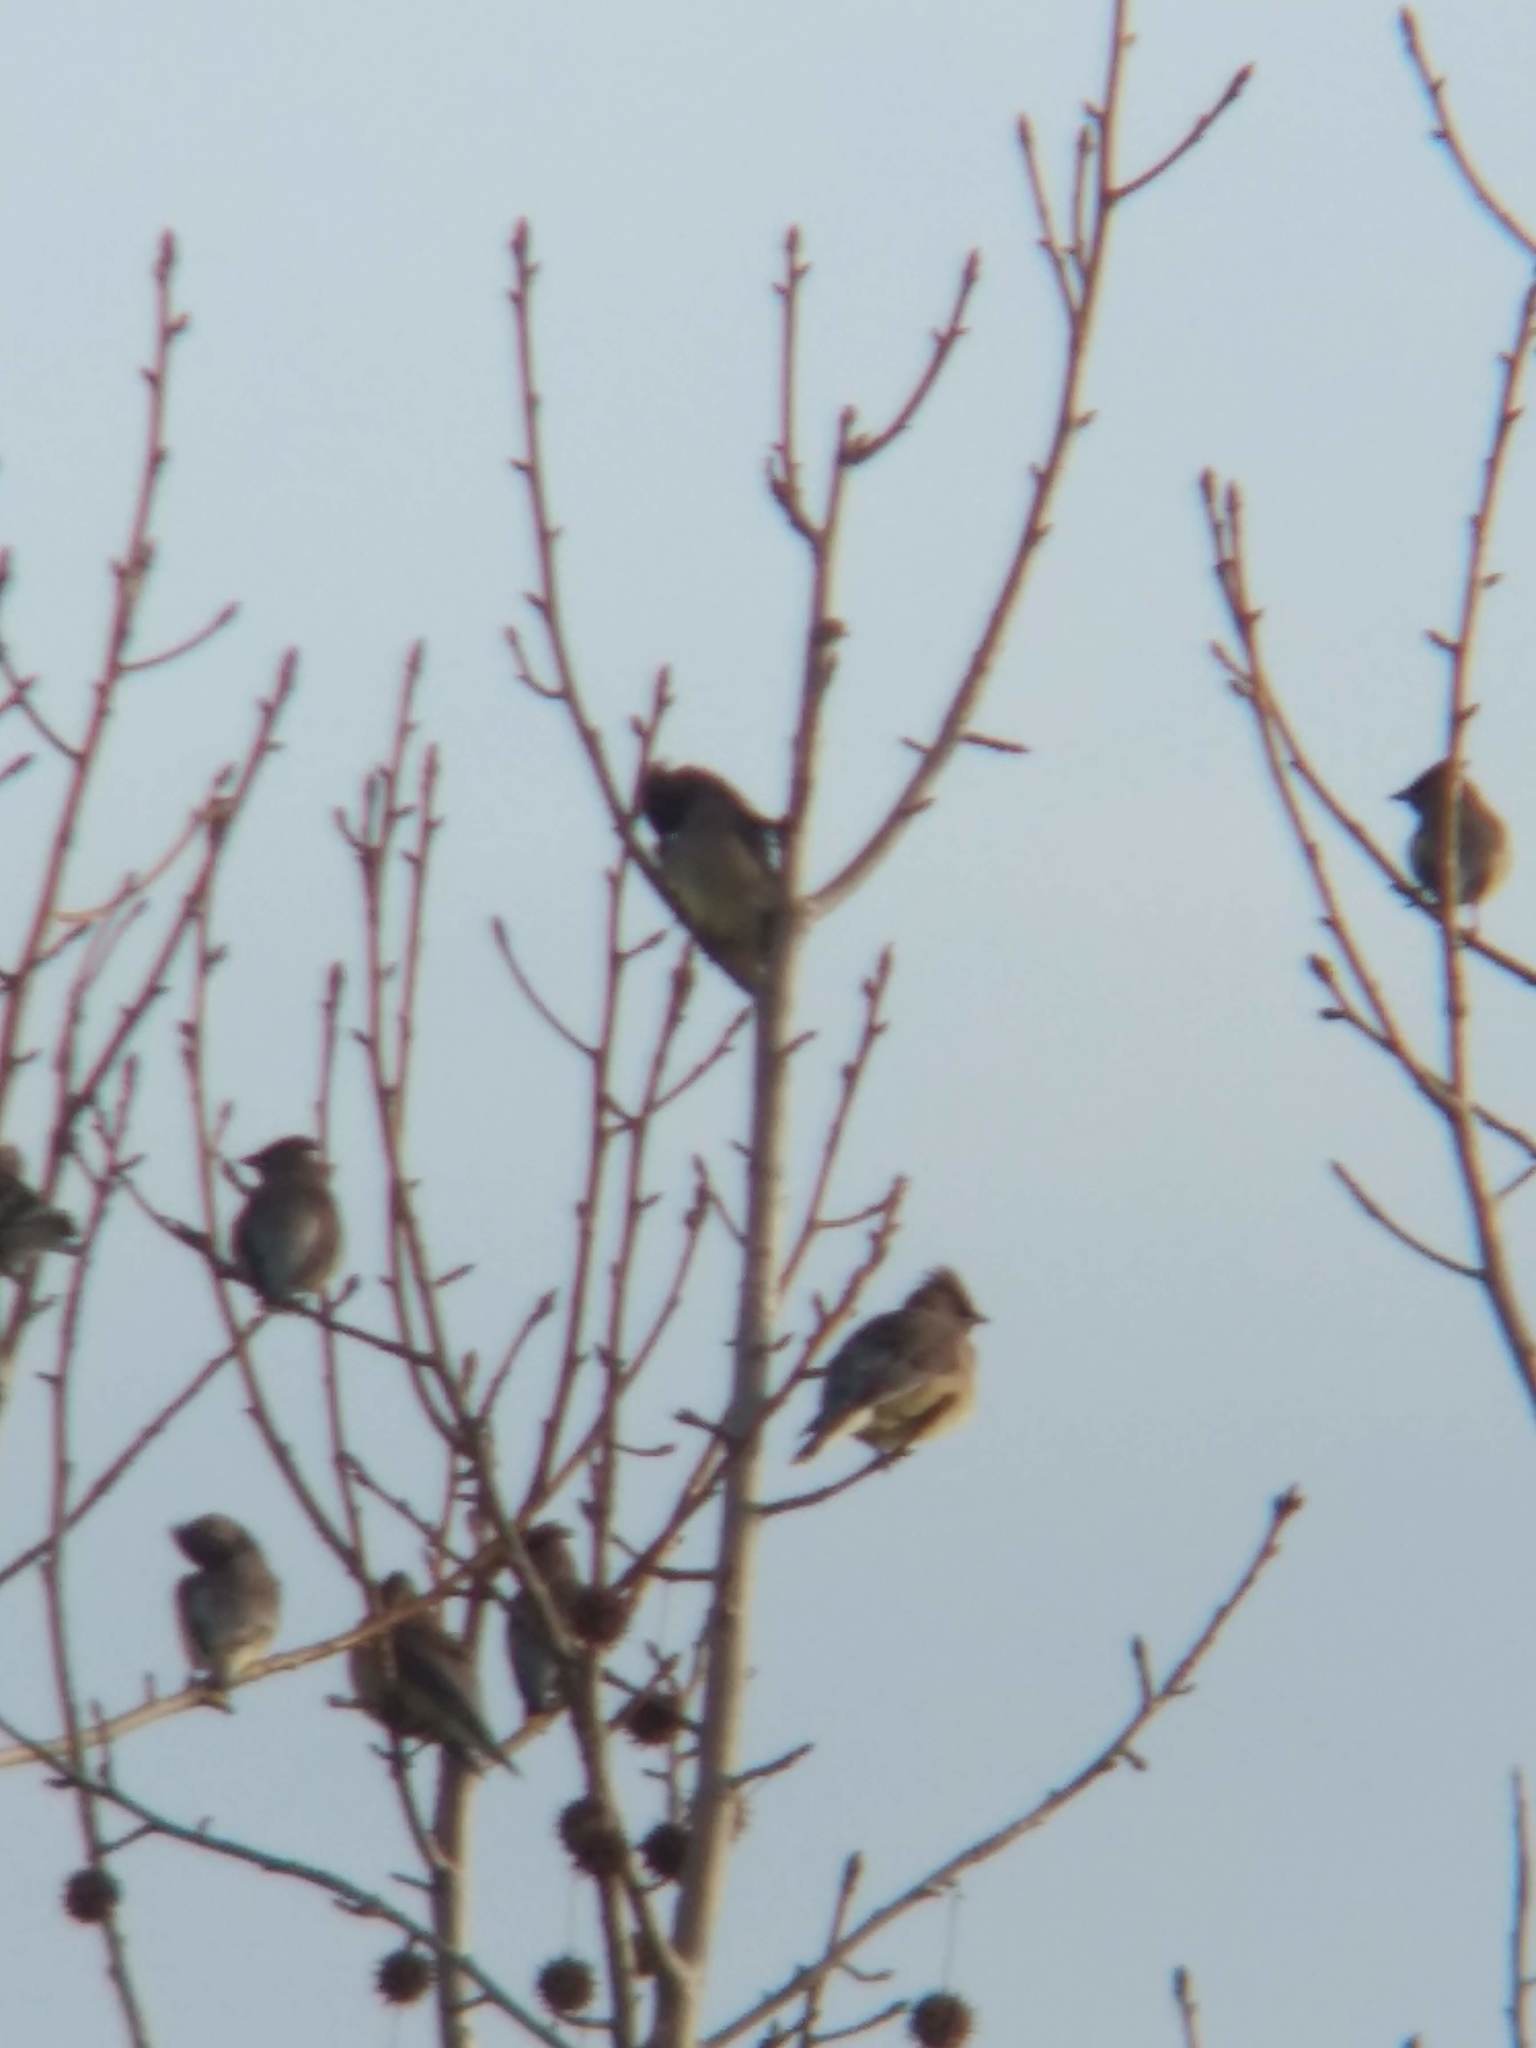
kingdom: Animalia
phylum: Chordata
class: Aves
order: Passeriformes
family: Bombycillidae
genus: Bombycilla
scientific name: Bombycilla cedrorum
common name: Cedar waxwing
